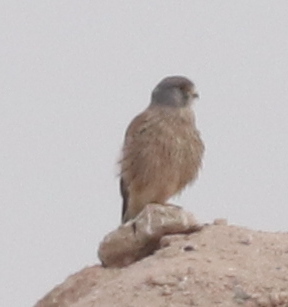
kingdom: Animalia
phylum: Chordata
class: Aves
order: Falconiformes
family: Falconidae
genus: Falco
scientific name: Falco tinnunculus
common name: Common kestrel
